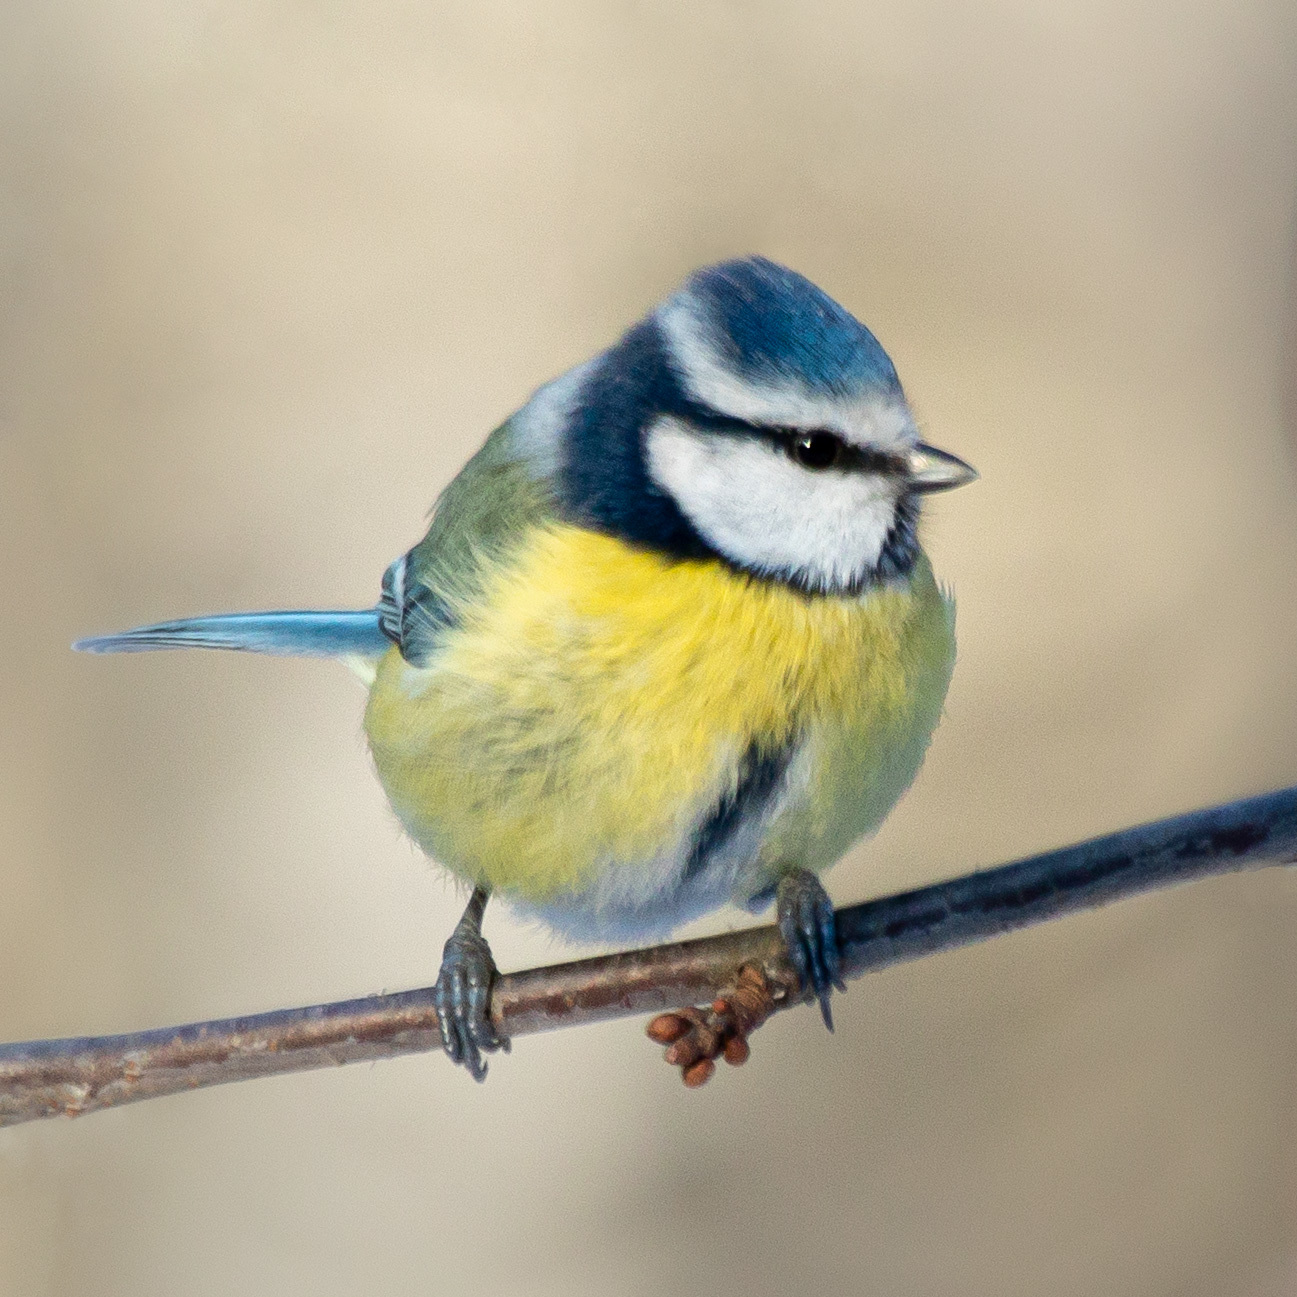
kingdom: Animalia
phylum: Chordata
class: Aves
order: Passeriformes
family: Paridae
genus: Cyanistes
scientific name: Cyanistes caeruleus
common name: Eurasian blue tit
